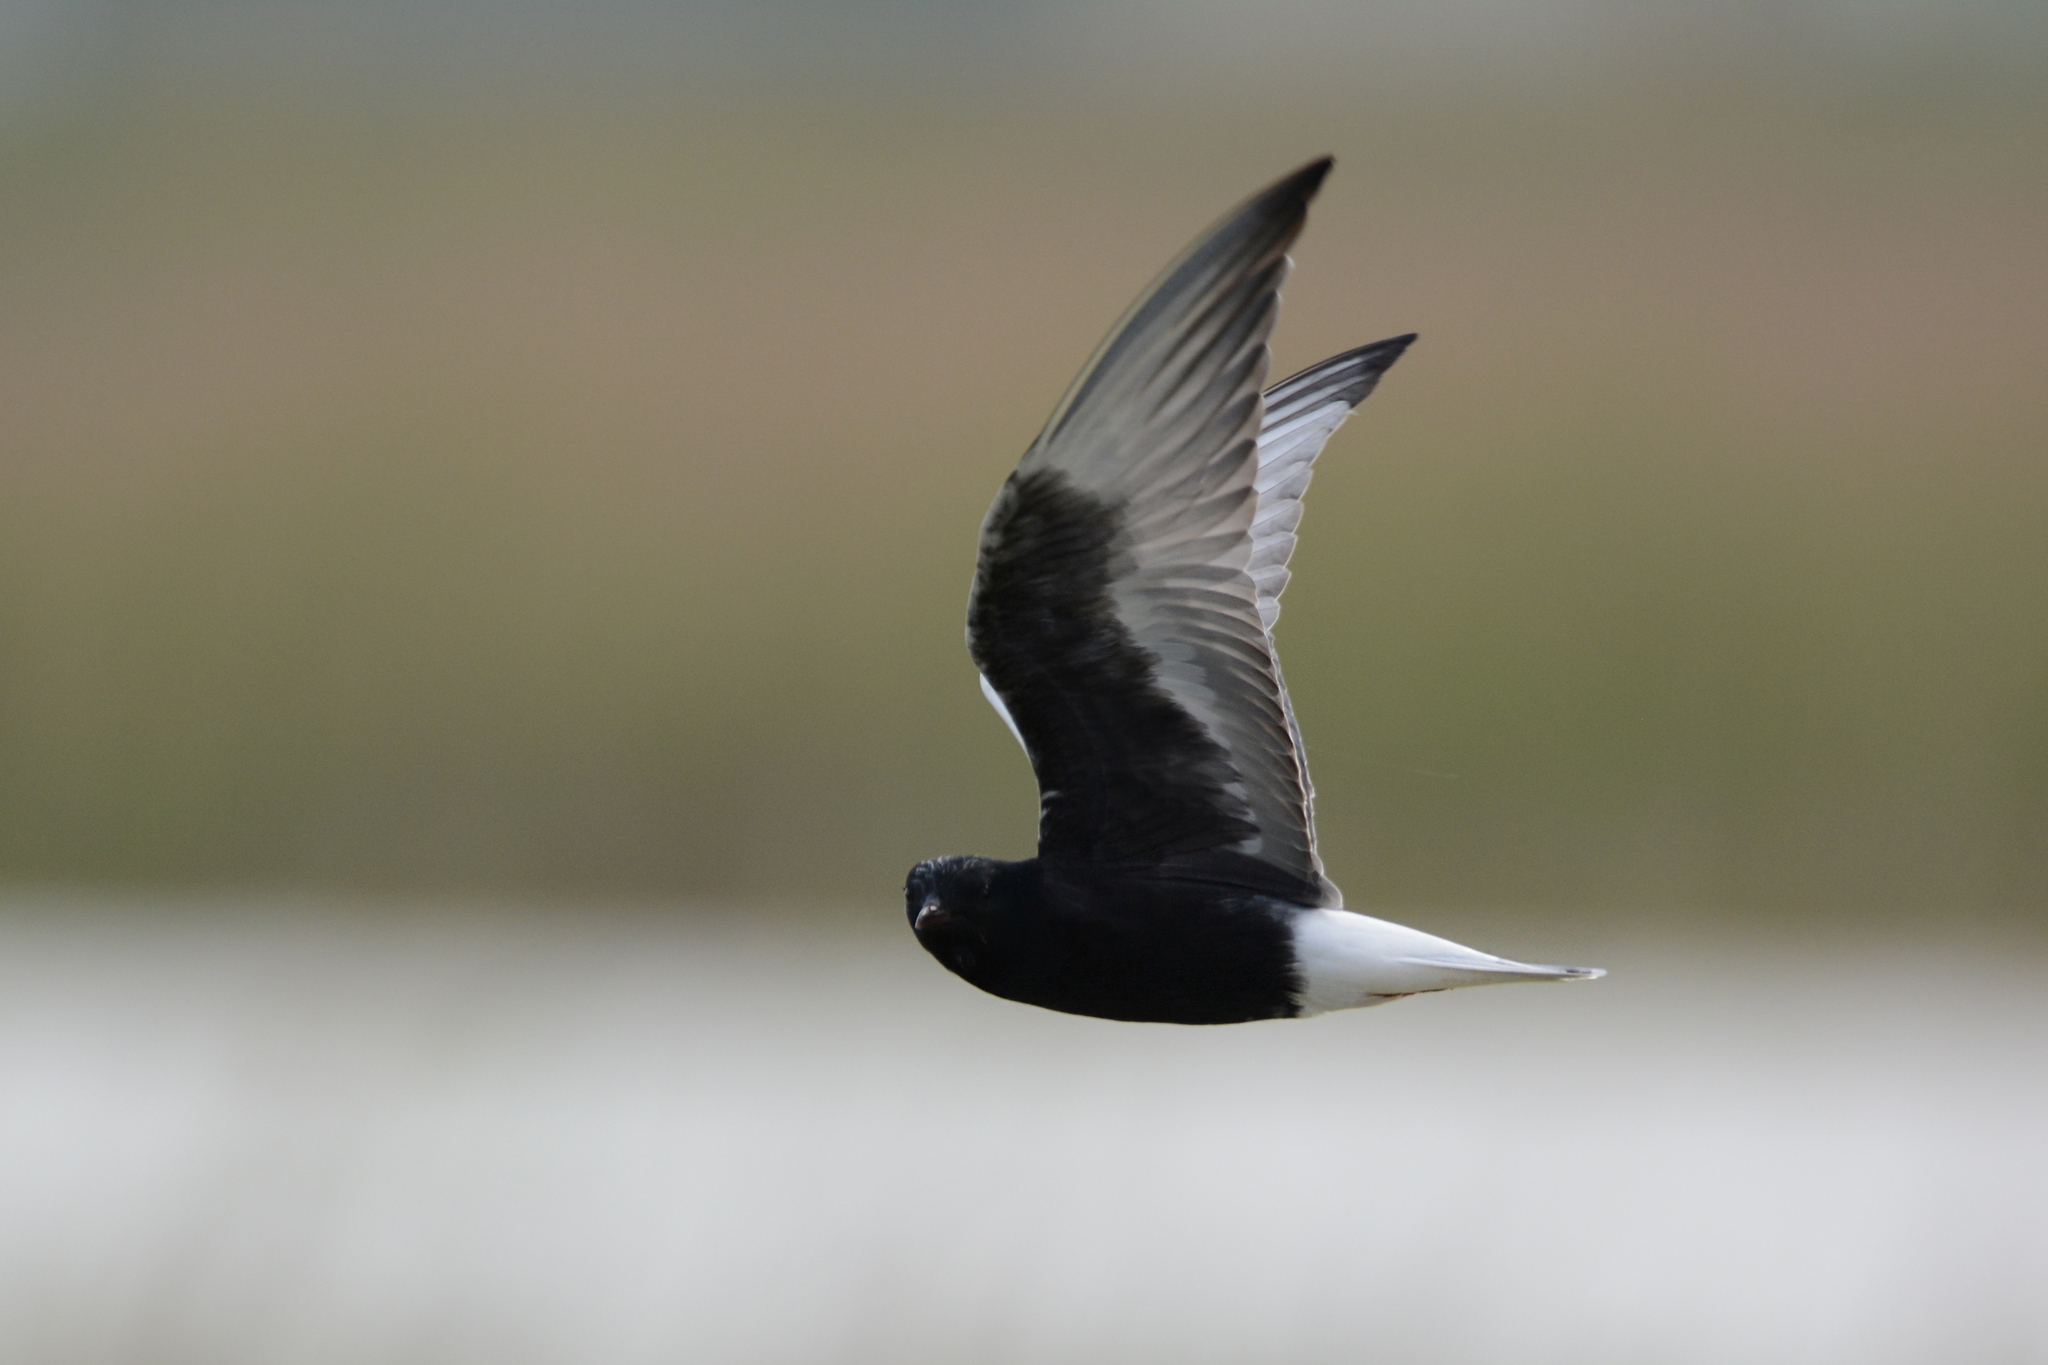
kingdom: Animalia
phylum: Chordata
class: Aves
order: Charadriiformes
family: Laridae
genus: Chlidonias
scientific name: Chlidonias leucopterus
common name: White-winged tern
